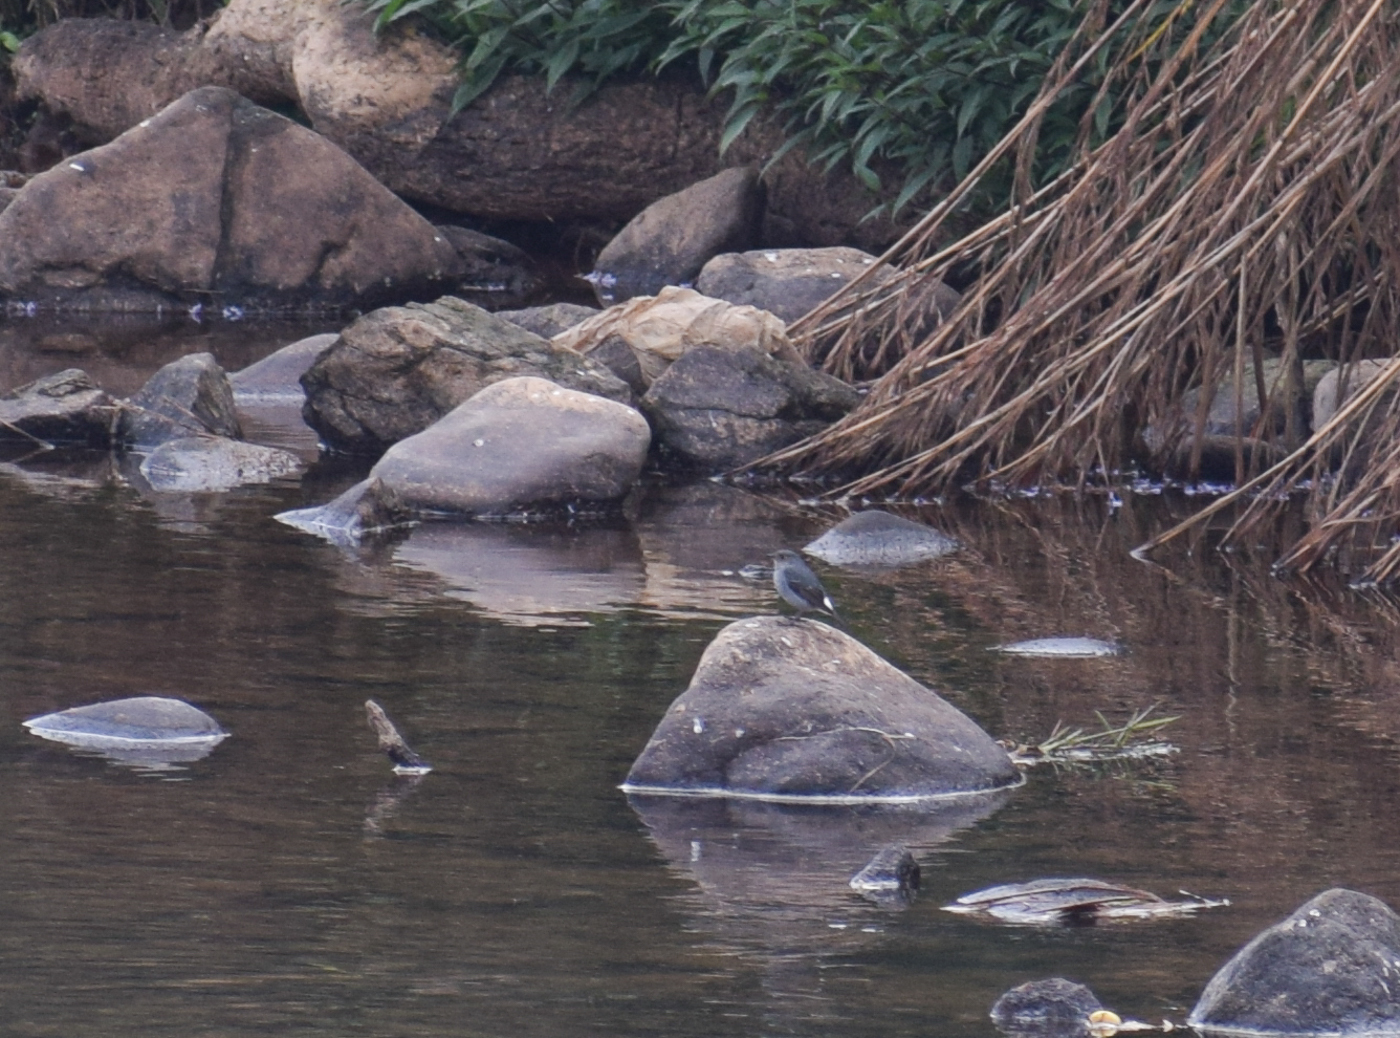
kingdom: Animalia
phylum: Chordata
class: Aves
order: Passeriformes
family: Muscicapidae
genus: Phoenicurus
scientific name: Phoenicurus fuliginosus
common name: Plumbeous water redstart
